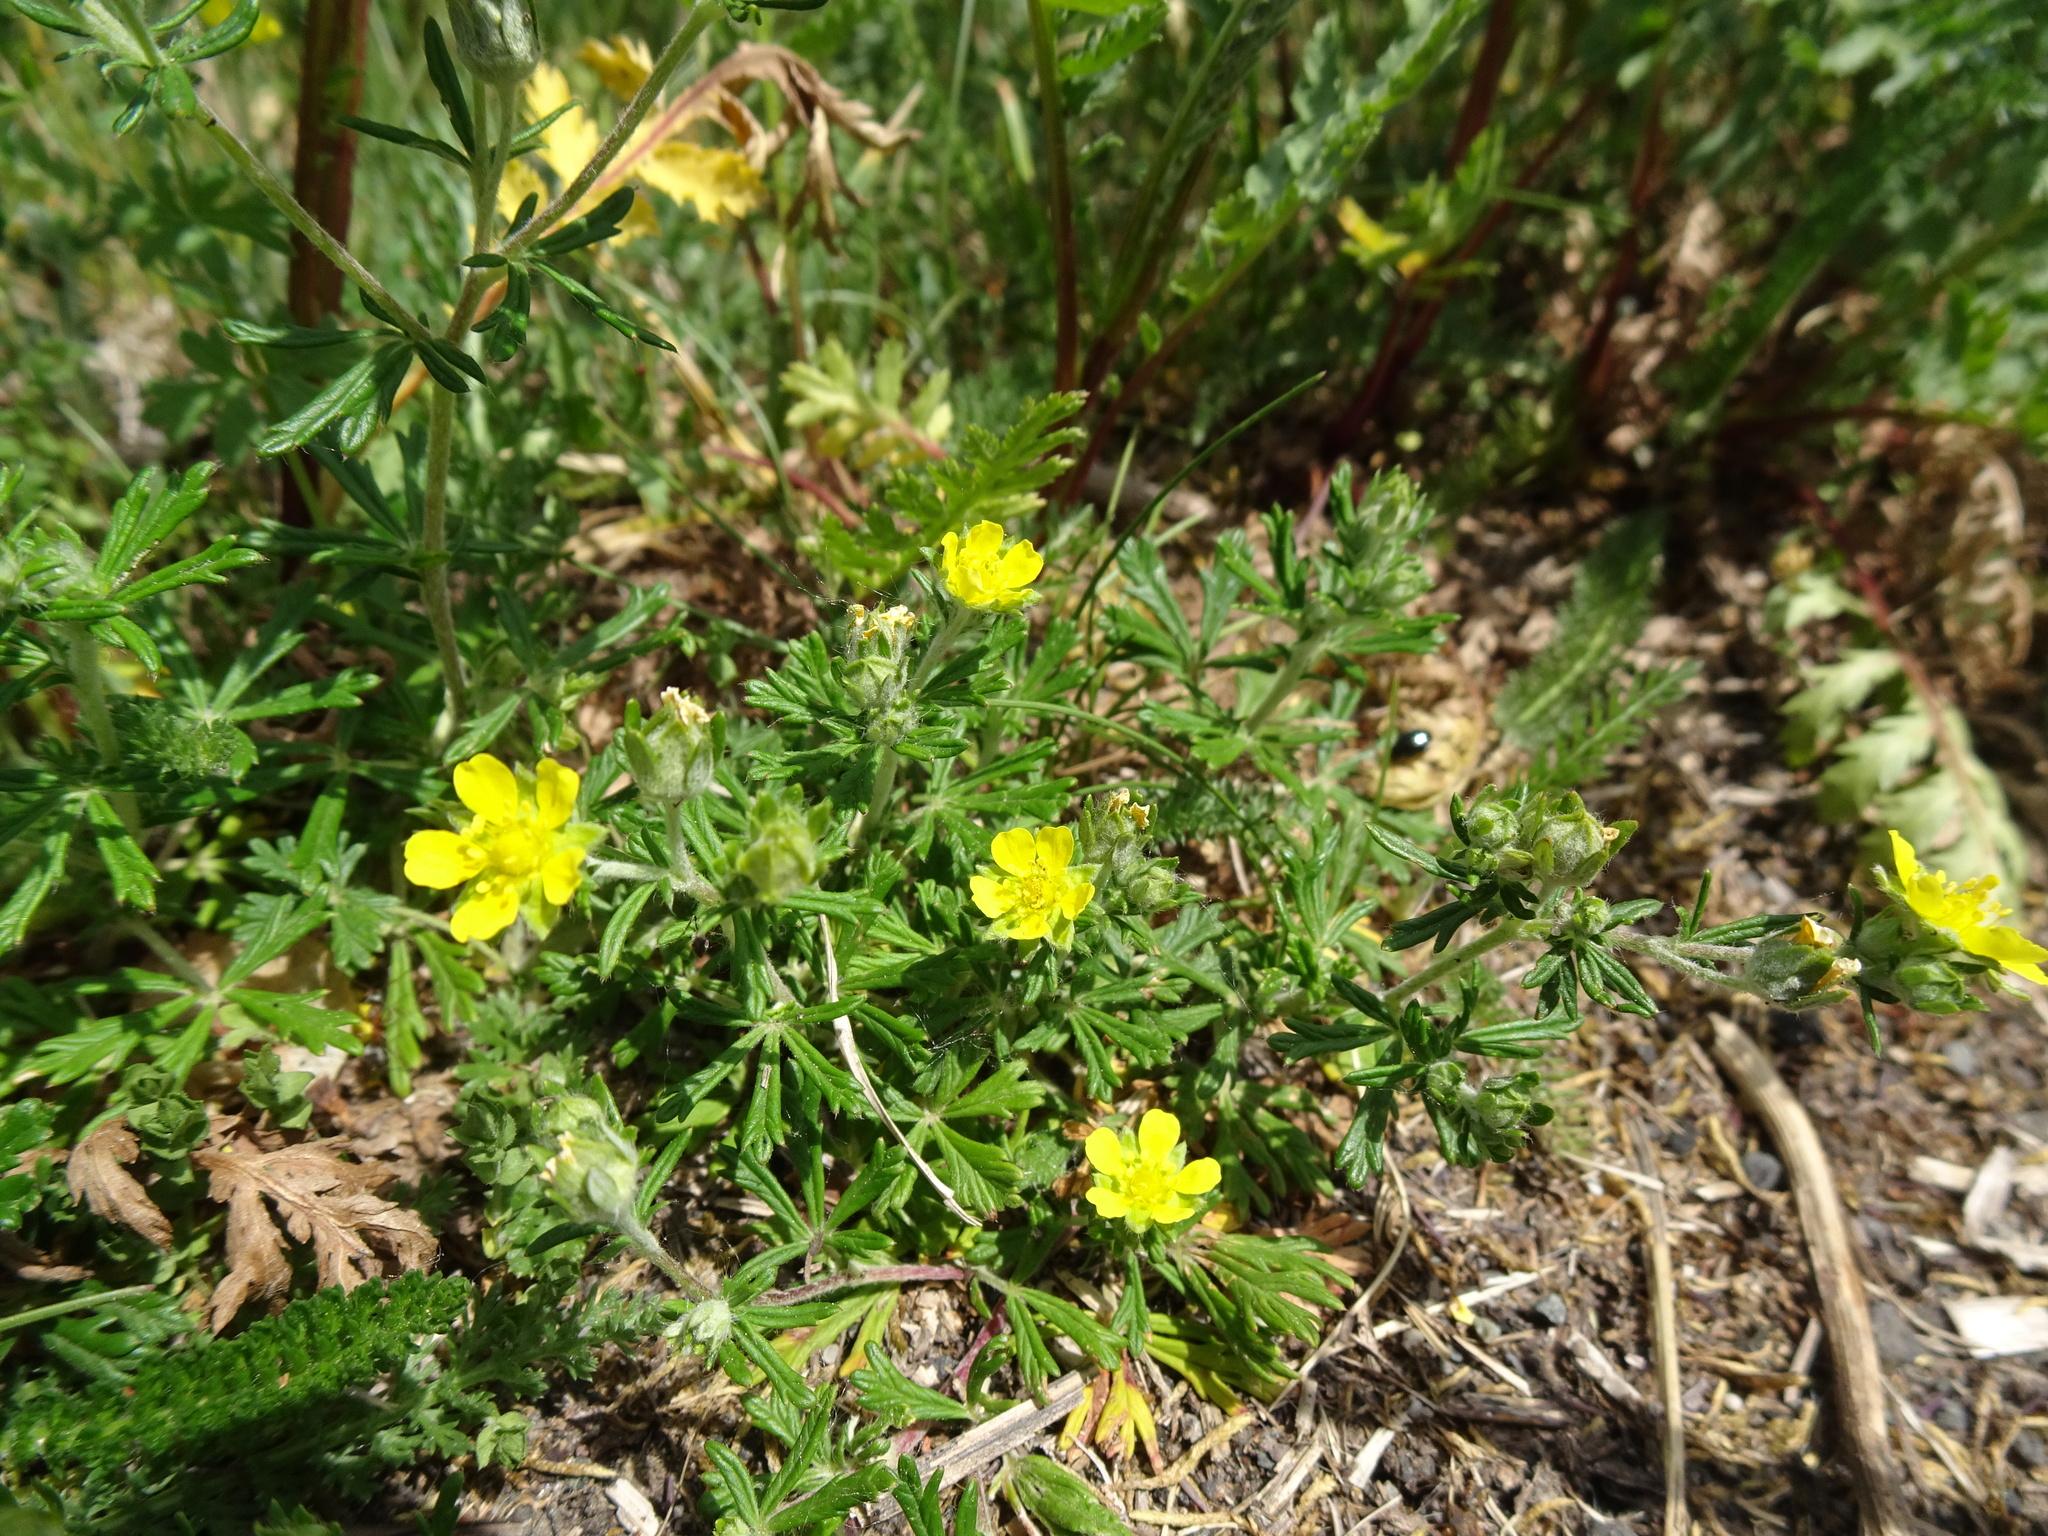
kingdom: Plantae
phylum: Tracheophyta
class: Magnoliopsida
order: Rosales
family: Rosaceae
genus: Potentilla
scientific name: Potentilla argentea
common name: Hoary cinquefoil
